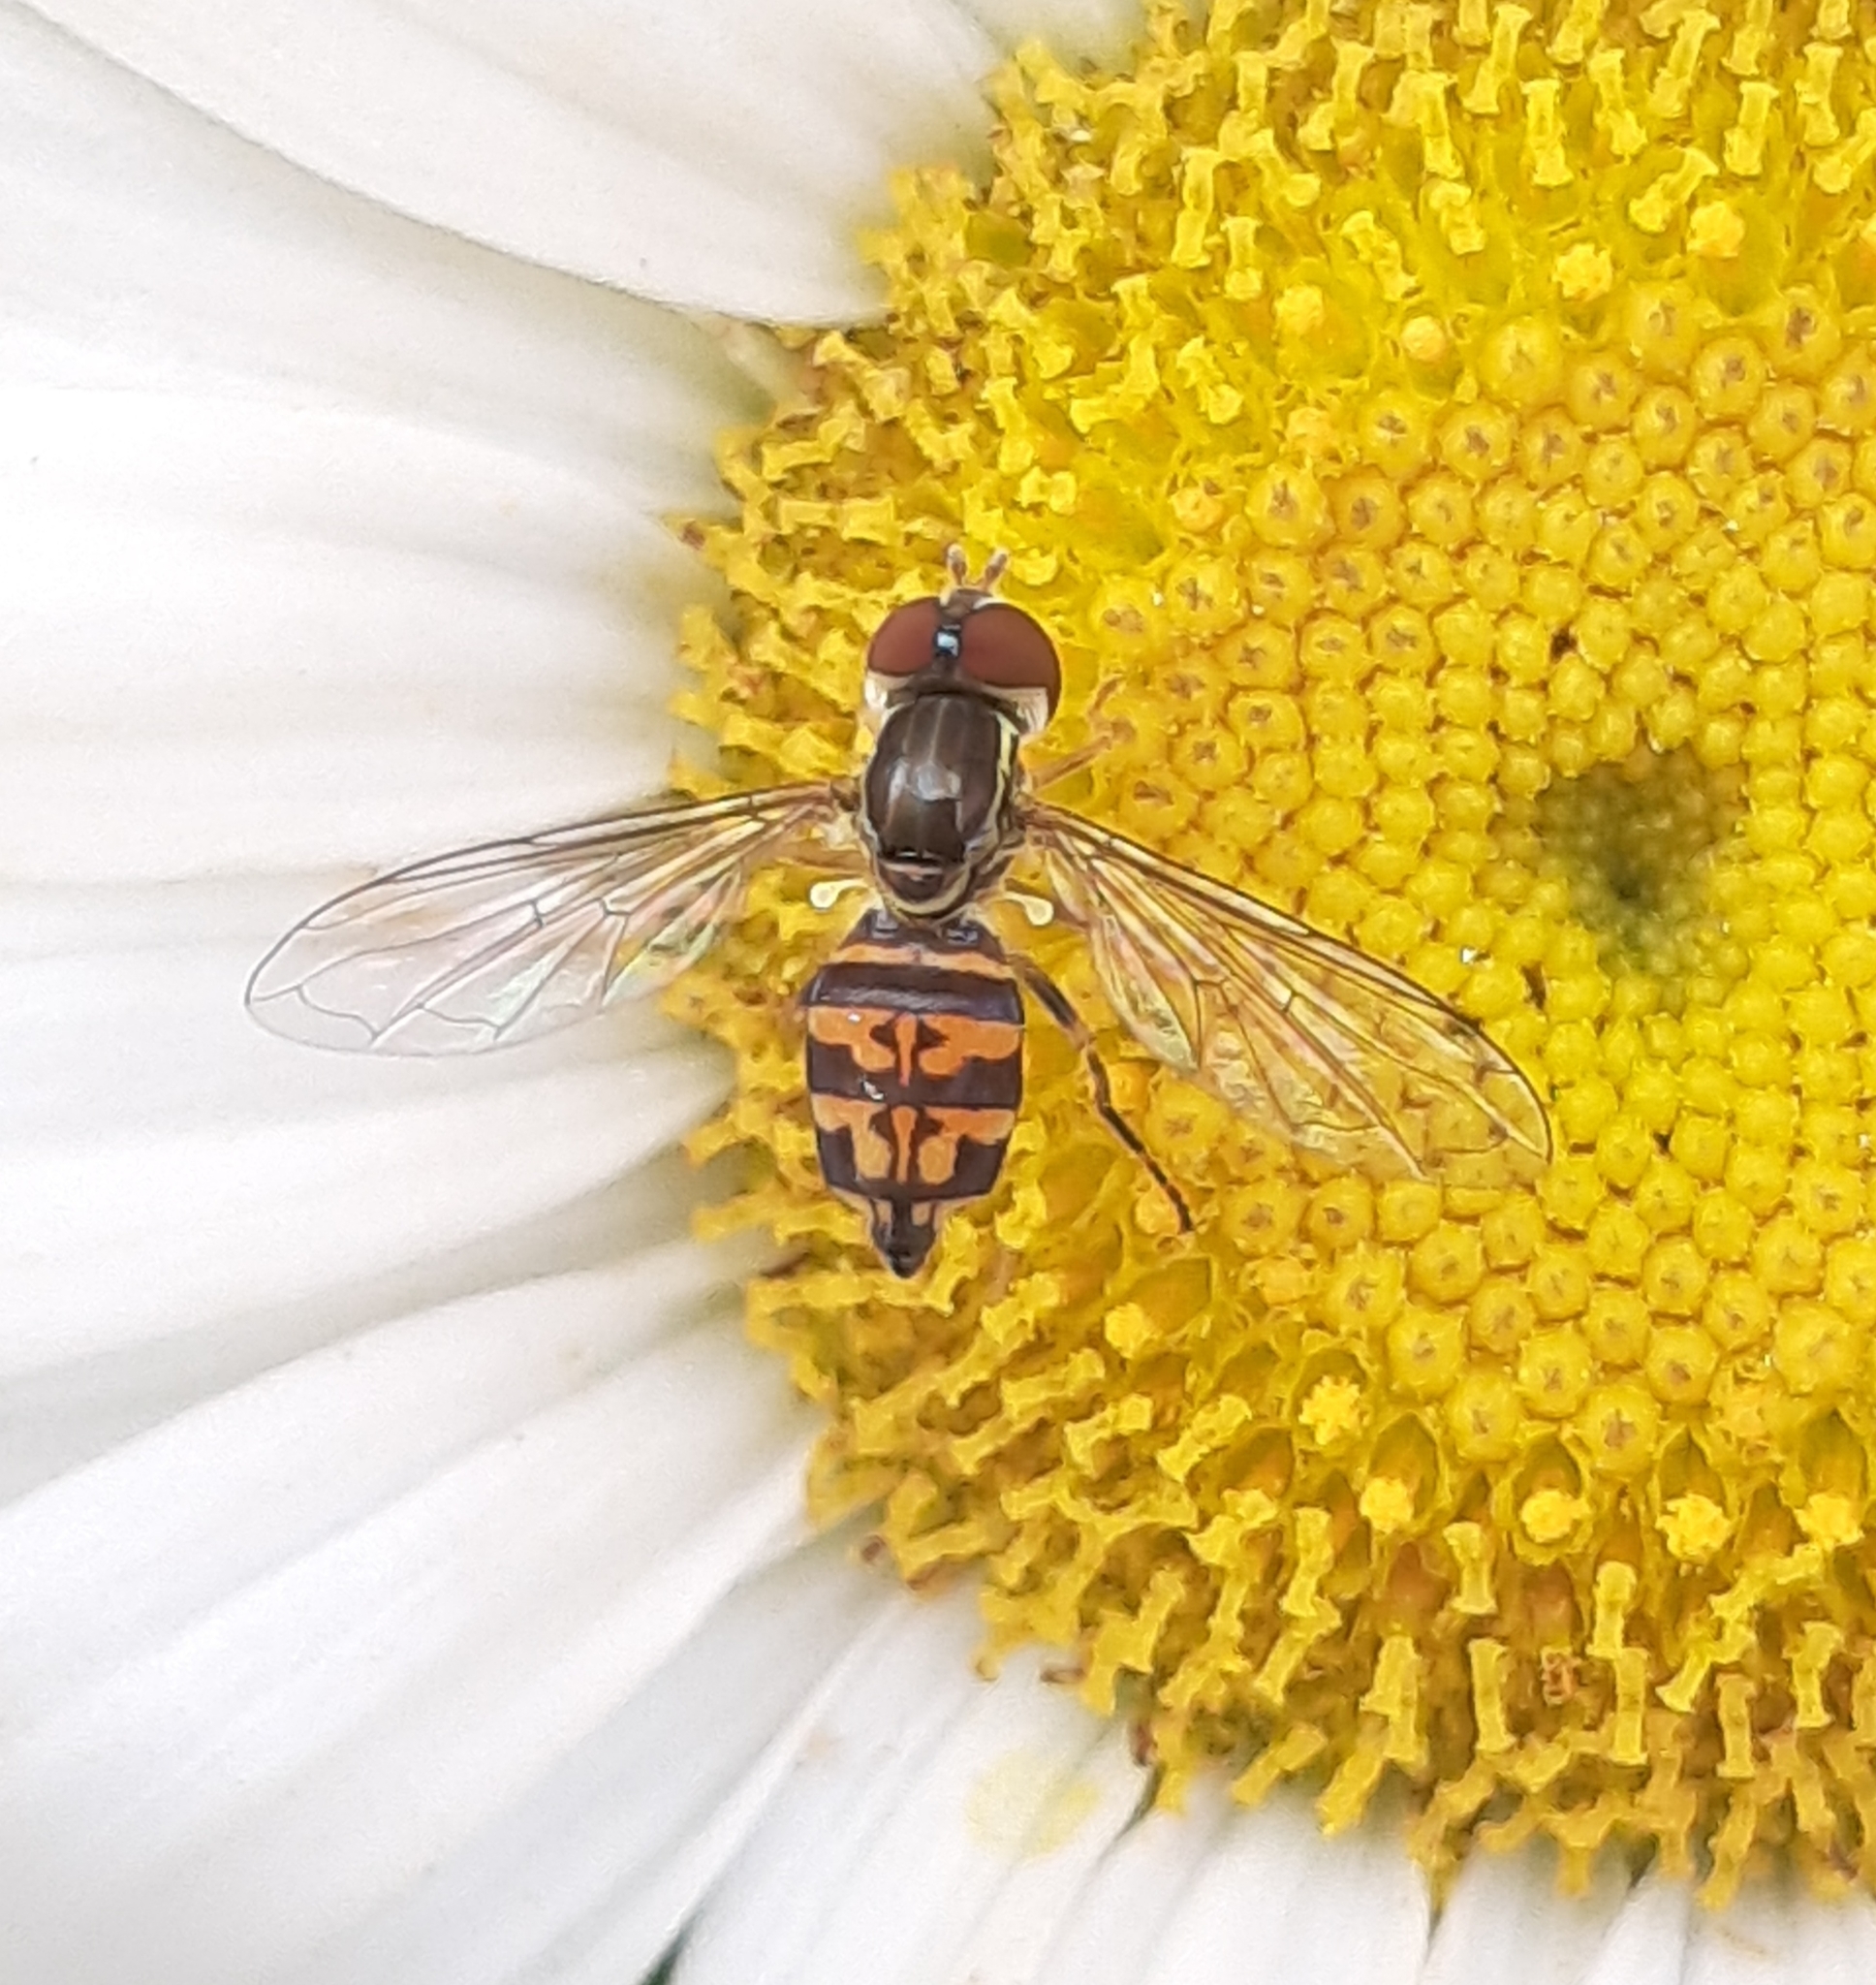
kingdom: Animalia
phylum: Arthropoda
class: Insecta
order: Diptera
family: Syrphidae
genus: Toxomerus
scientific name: Toxomerus geminatus
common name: Eastern calligrapher
